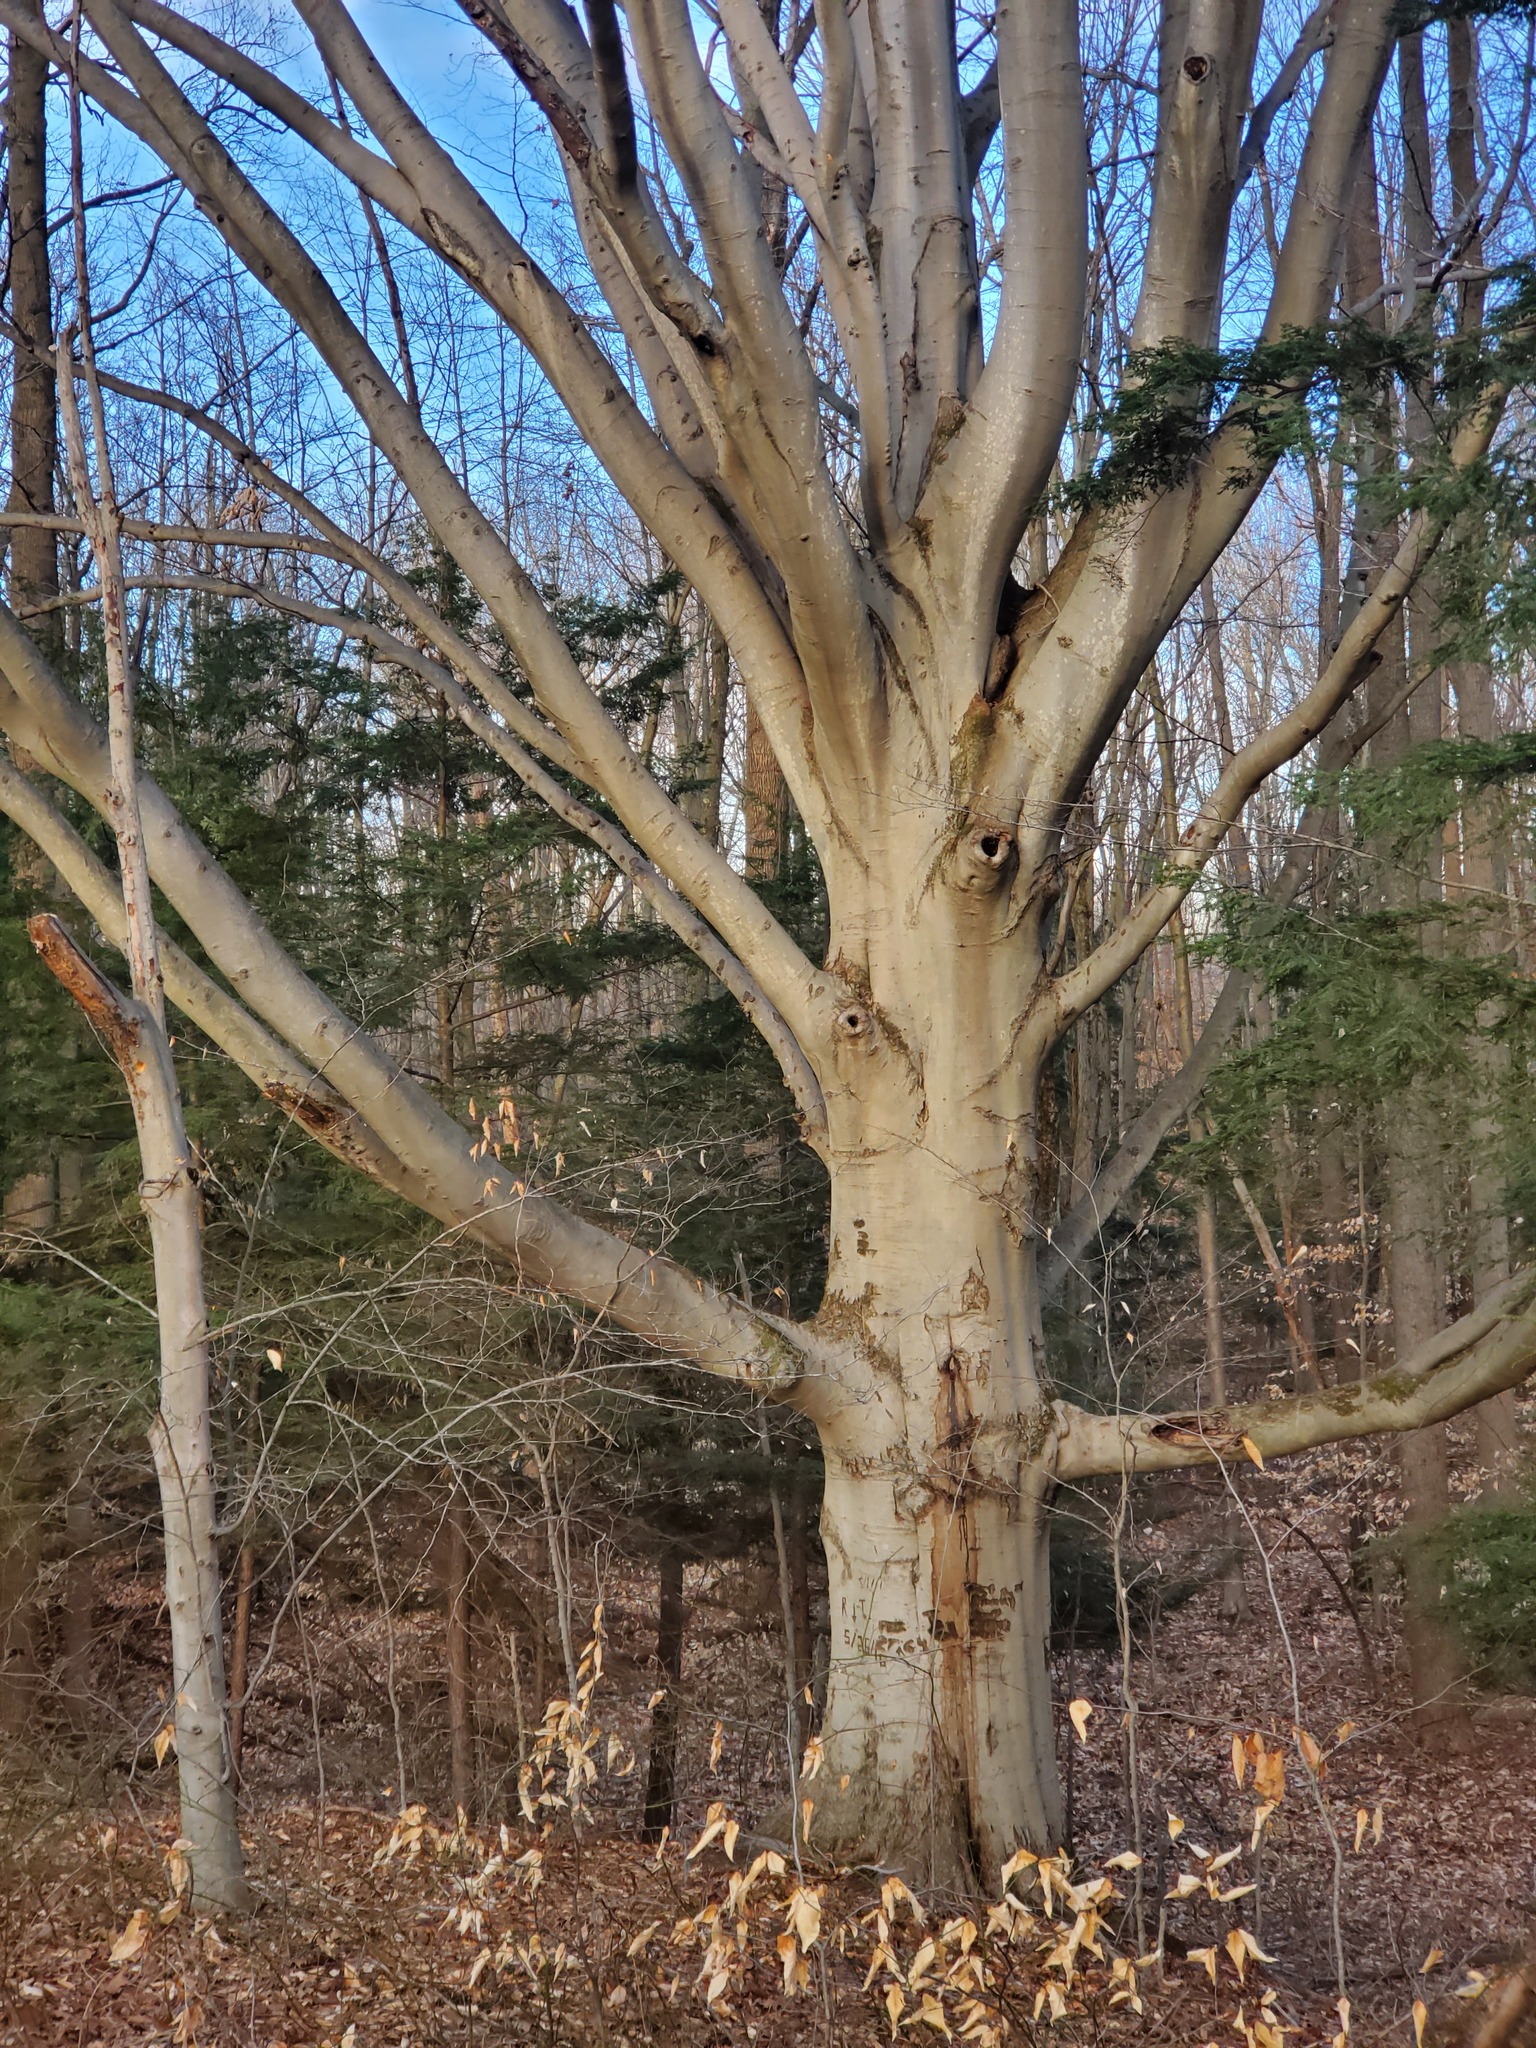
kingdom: Plantae
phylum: Tracheophyta
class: Magnoliopsida
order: Fagales
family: Fagaceae
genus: Fagus
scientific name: Fagus grandifolia
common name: American beech
